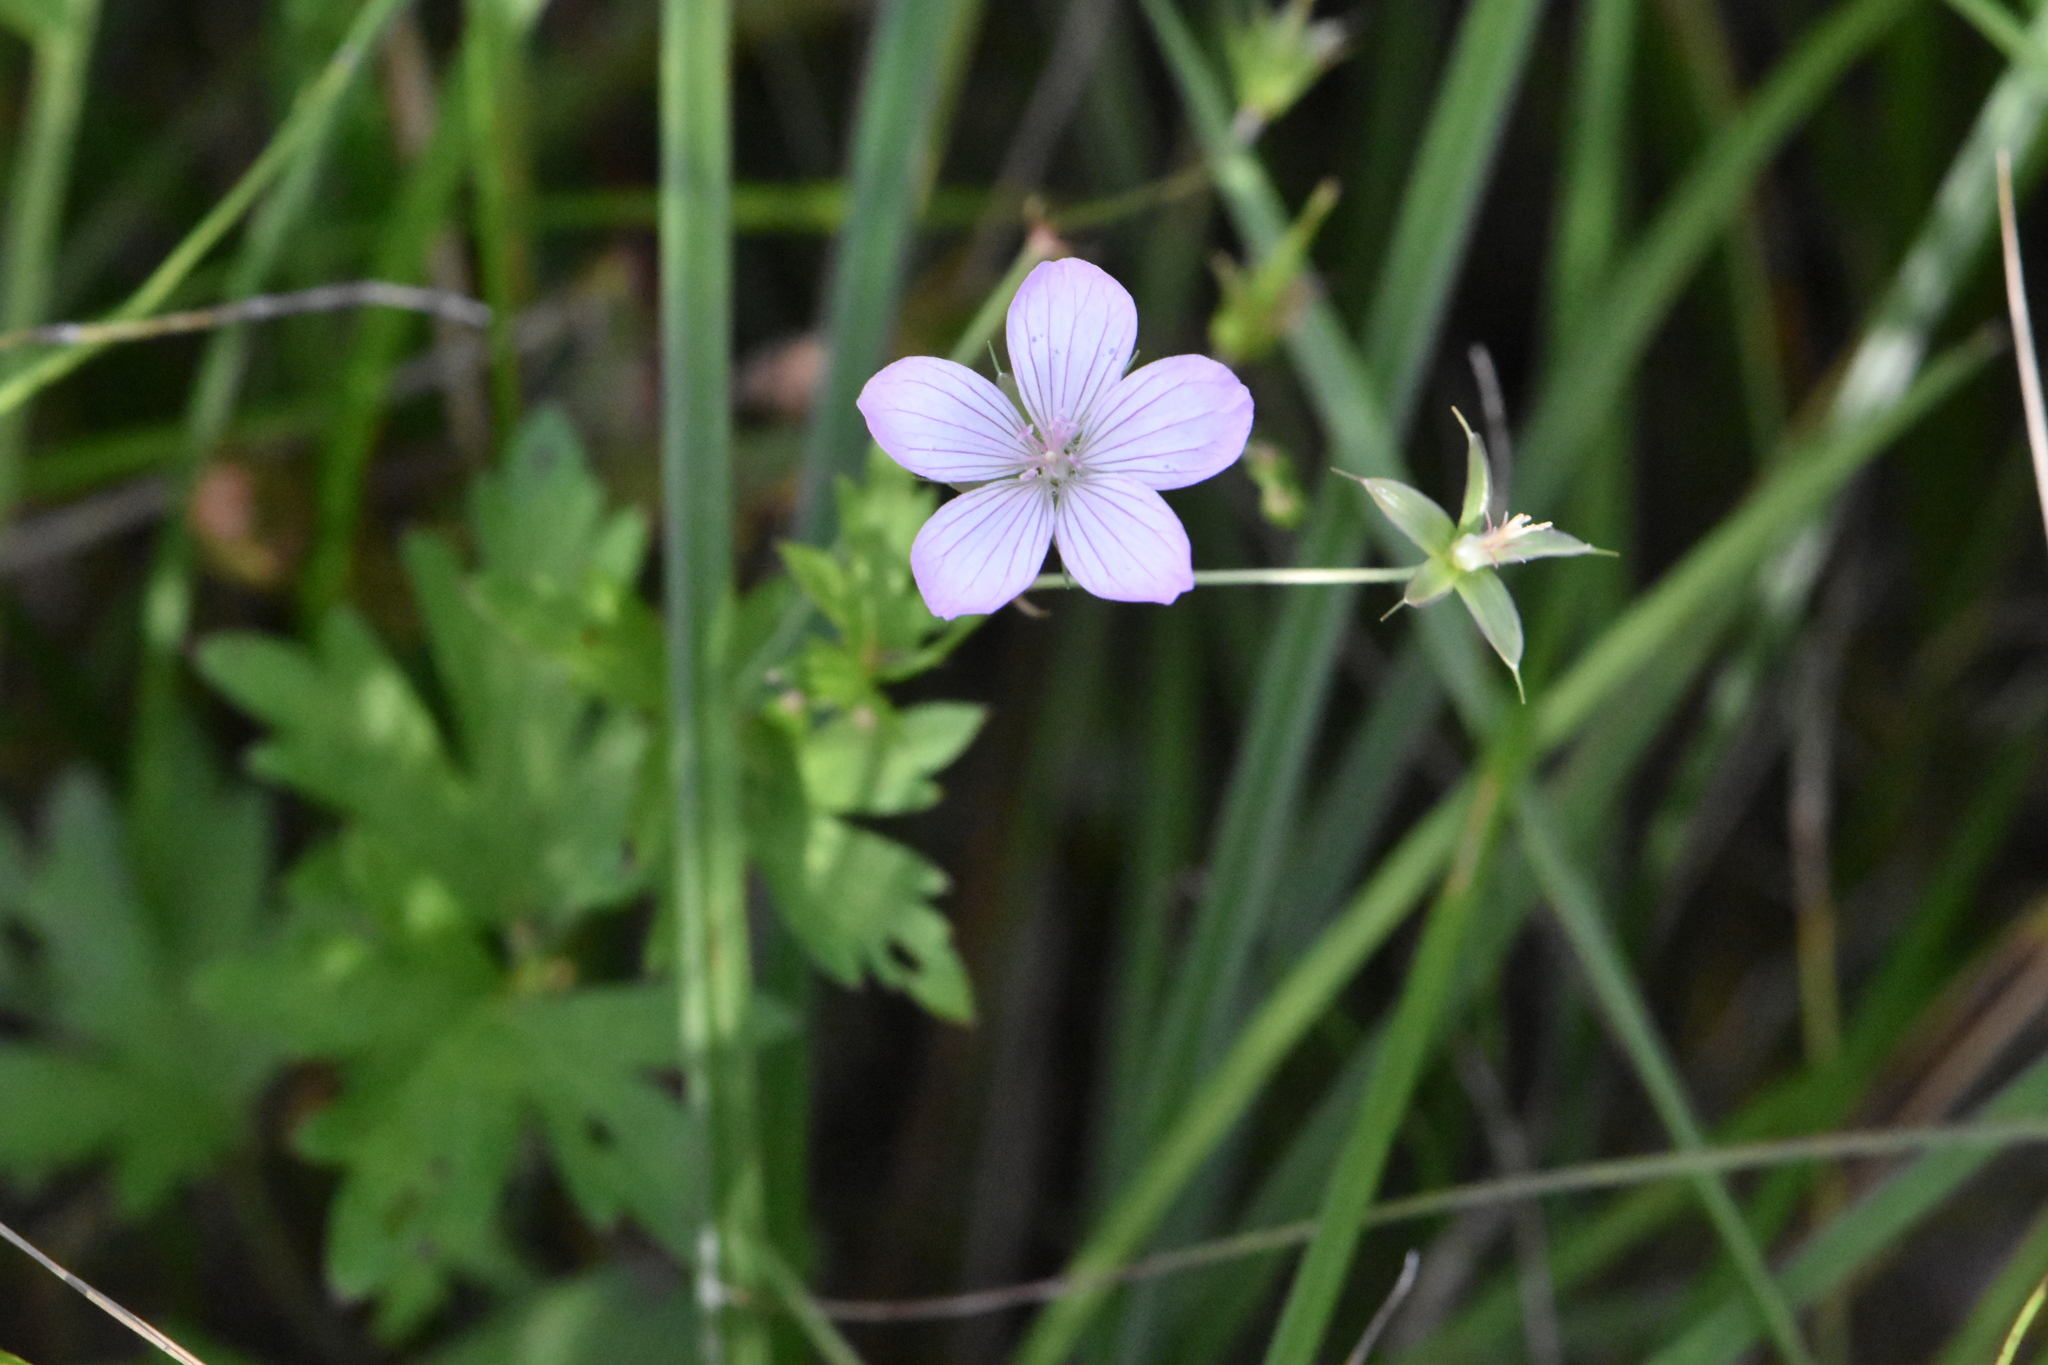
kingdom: Plantae
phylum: Tracheophyta
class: Magnoliopsida
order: Geraniales
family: Geraniaceae
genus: Geranium
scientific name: Geranium sibiricum
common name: Siberian crane's-bill
